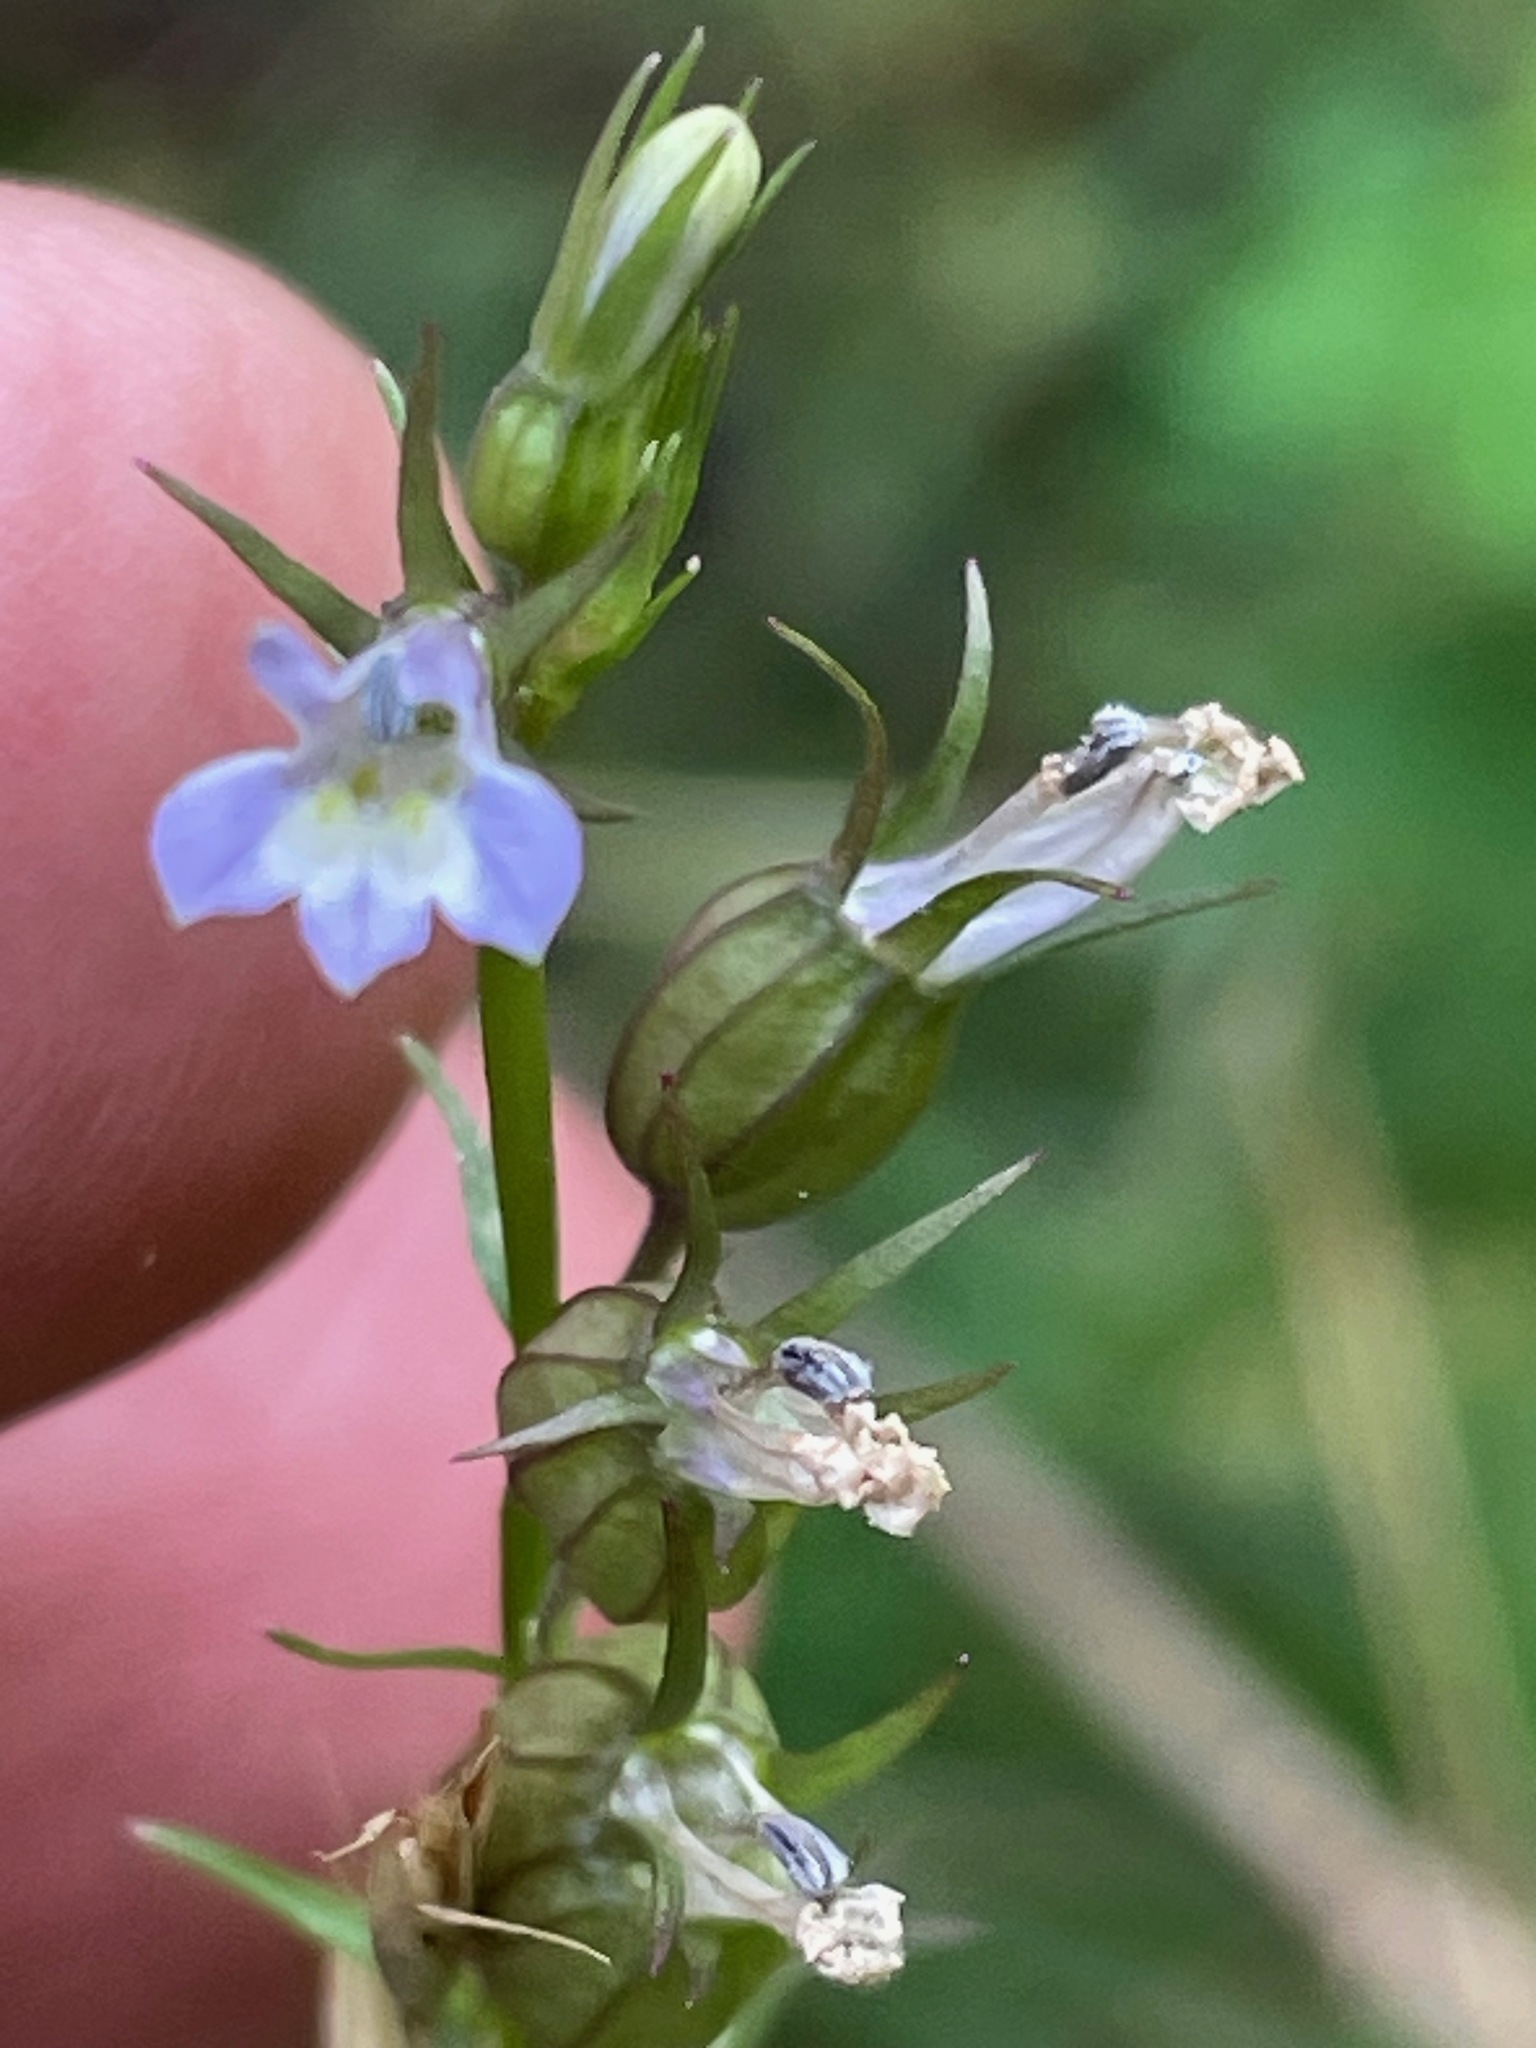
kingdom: Plantae
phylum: Tracheophyta
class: Magnoliopsida
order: Asterales
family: Campanulaceae
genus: Lobelia
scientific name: Lobelia inflata
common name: Indian tobacco
